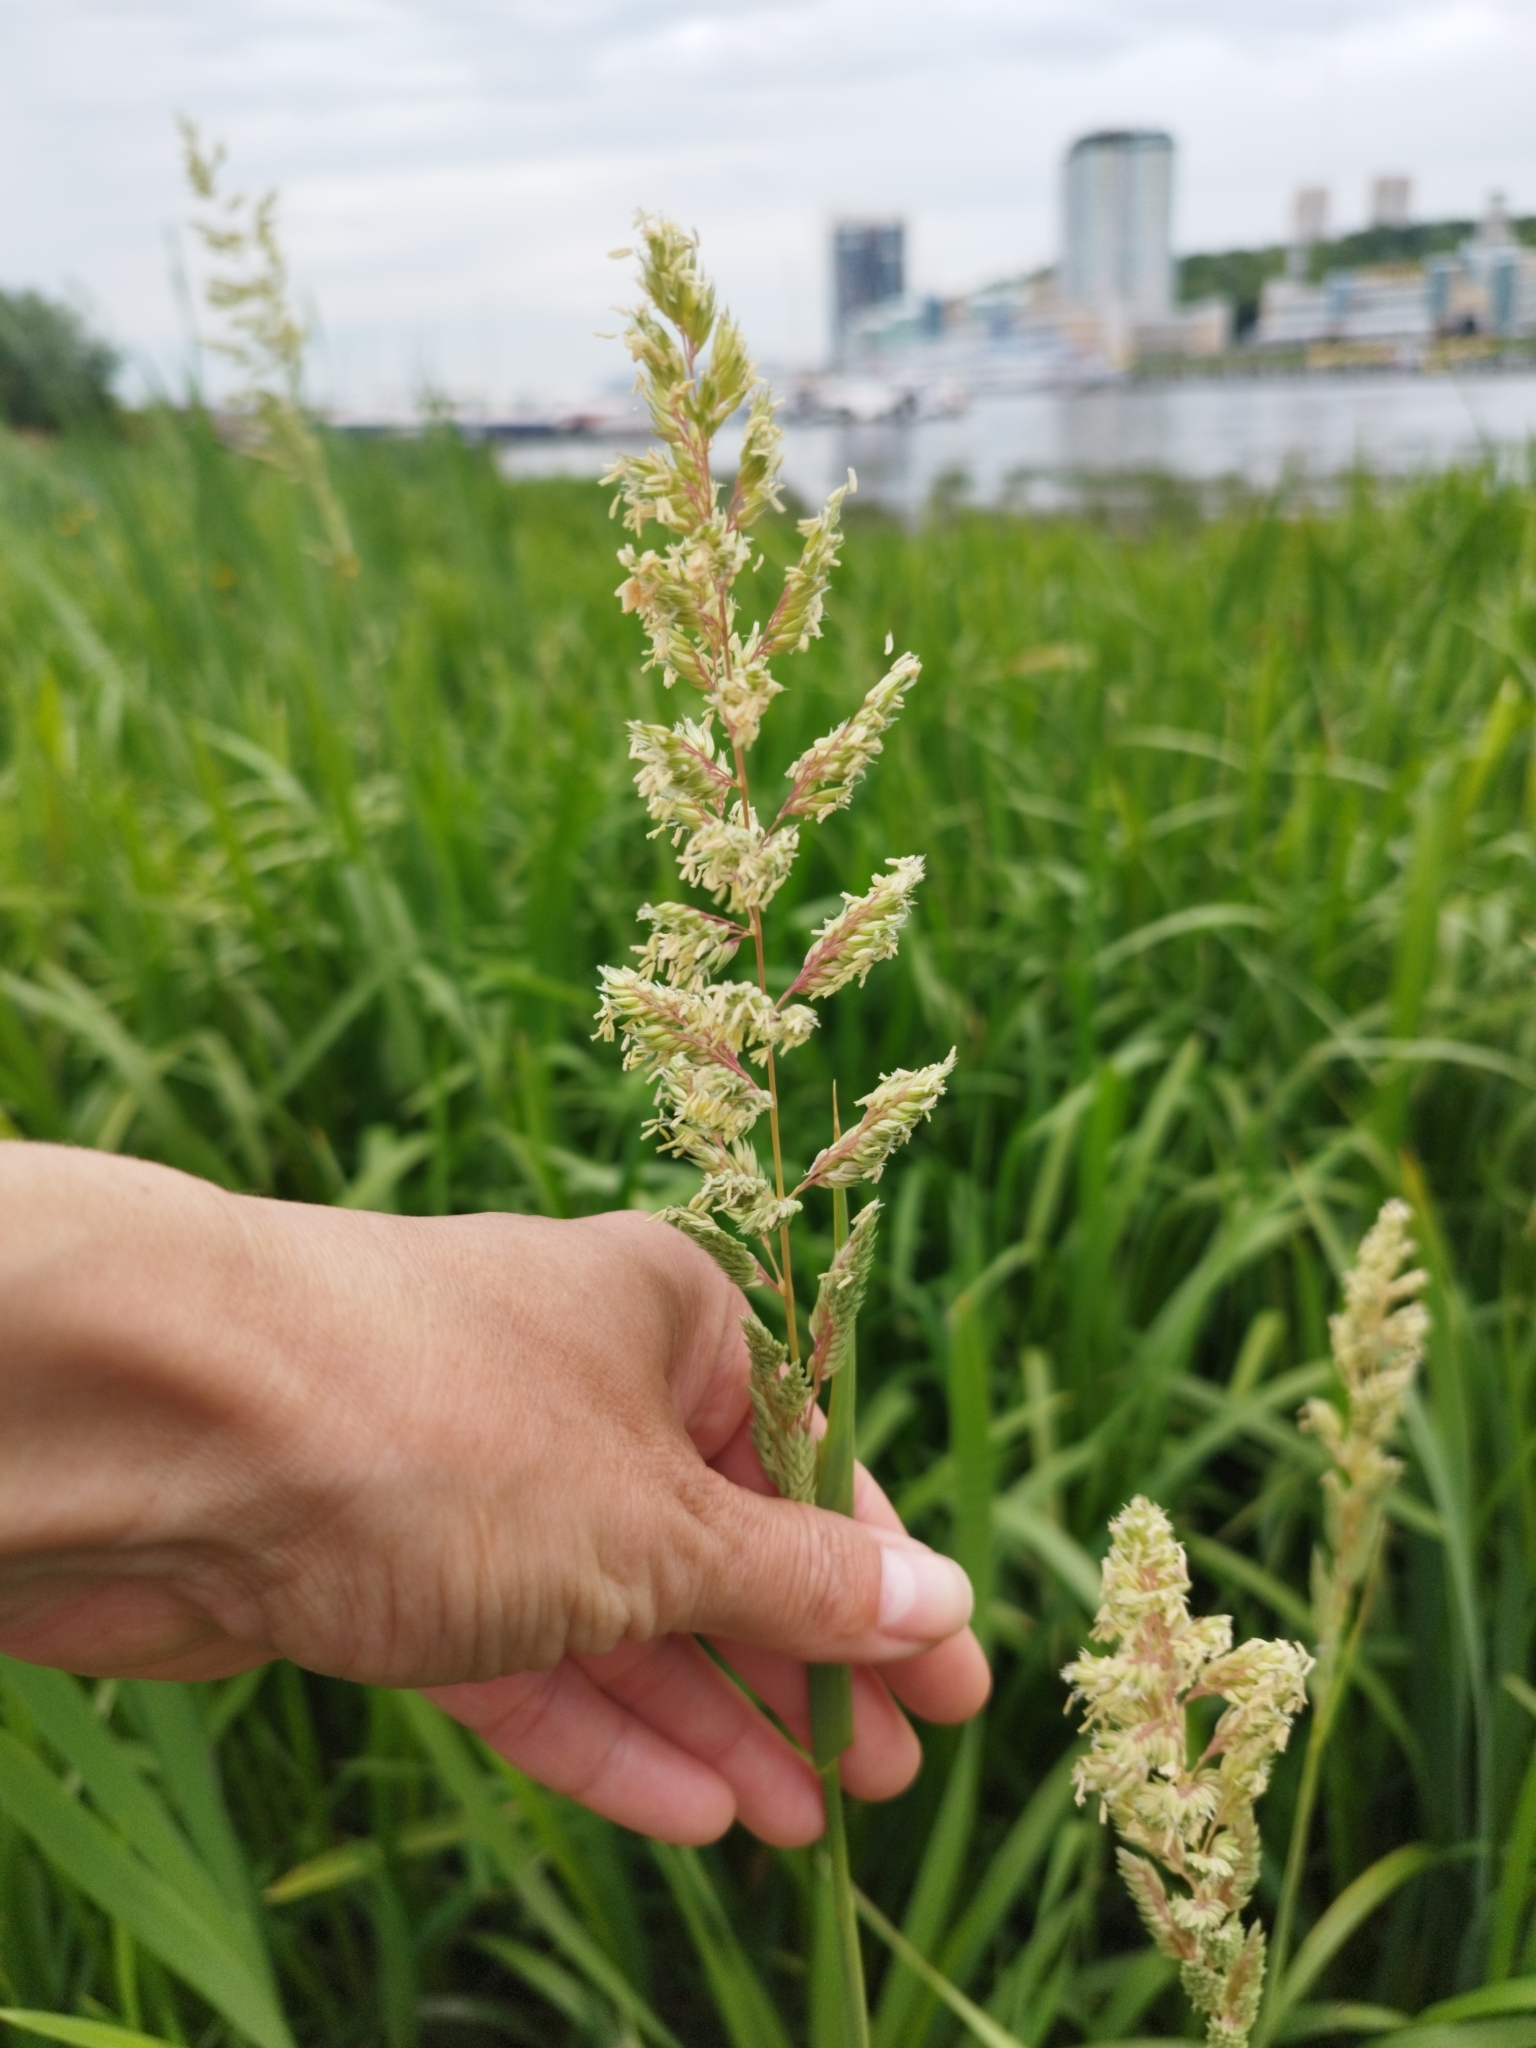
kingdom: Plantae
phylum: Tracheophyta
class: Liliopsida
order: Poales
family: Poaceae
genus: Phalaris
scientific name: Phalaris arundinacea
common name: Reed canary-grass
